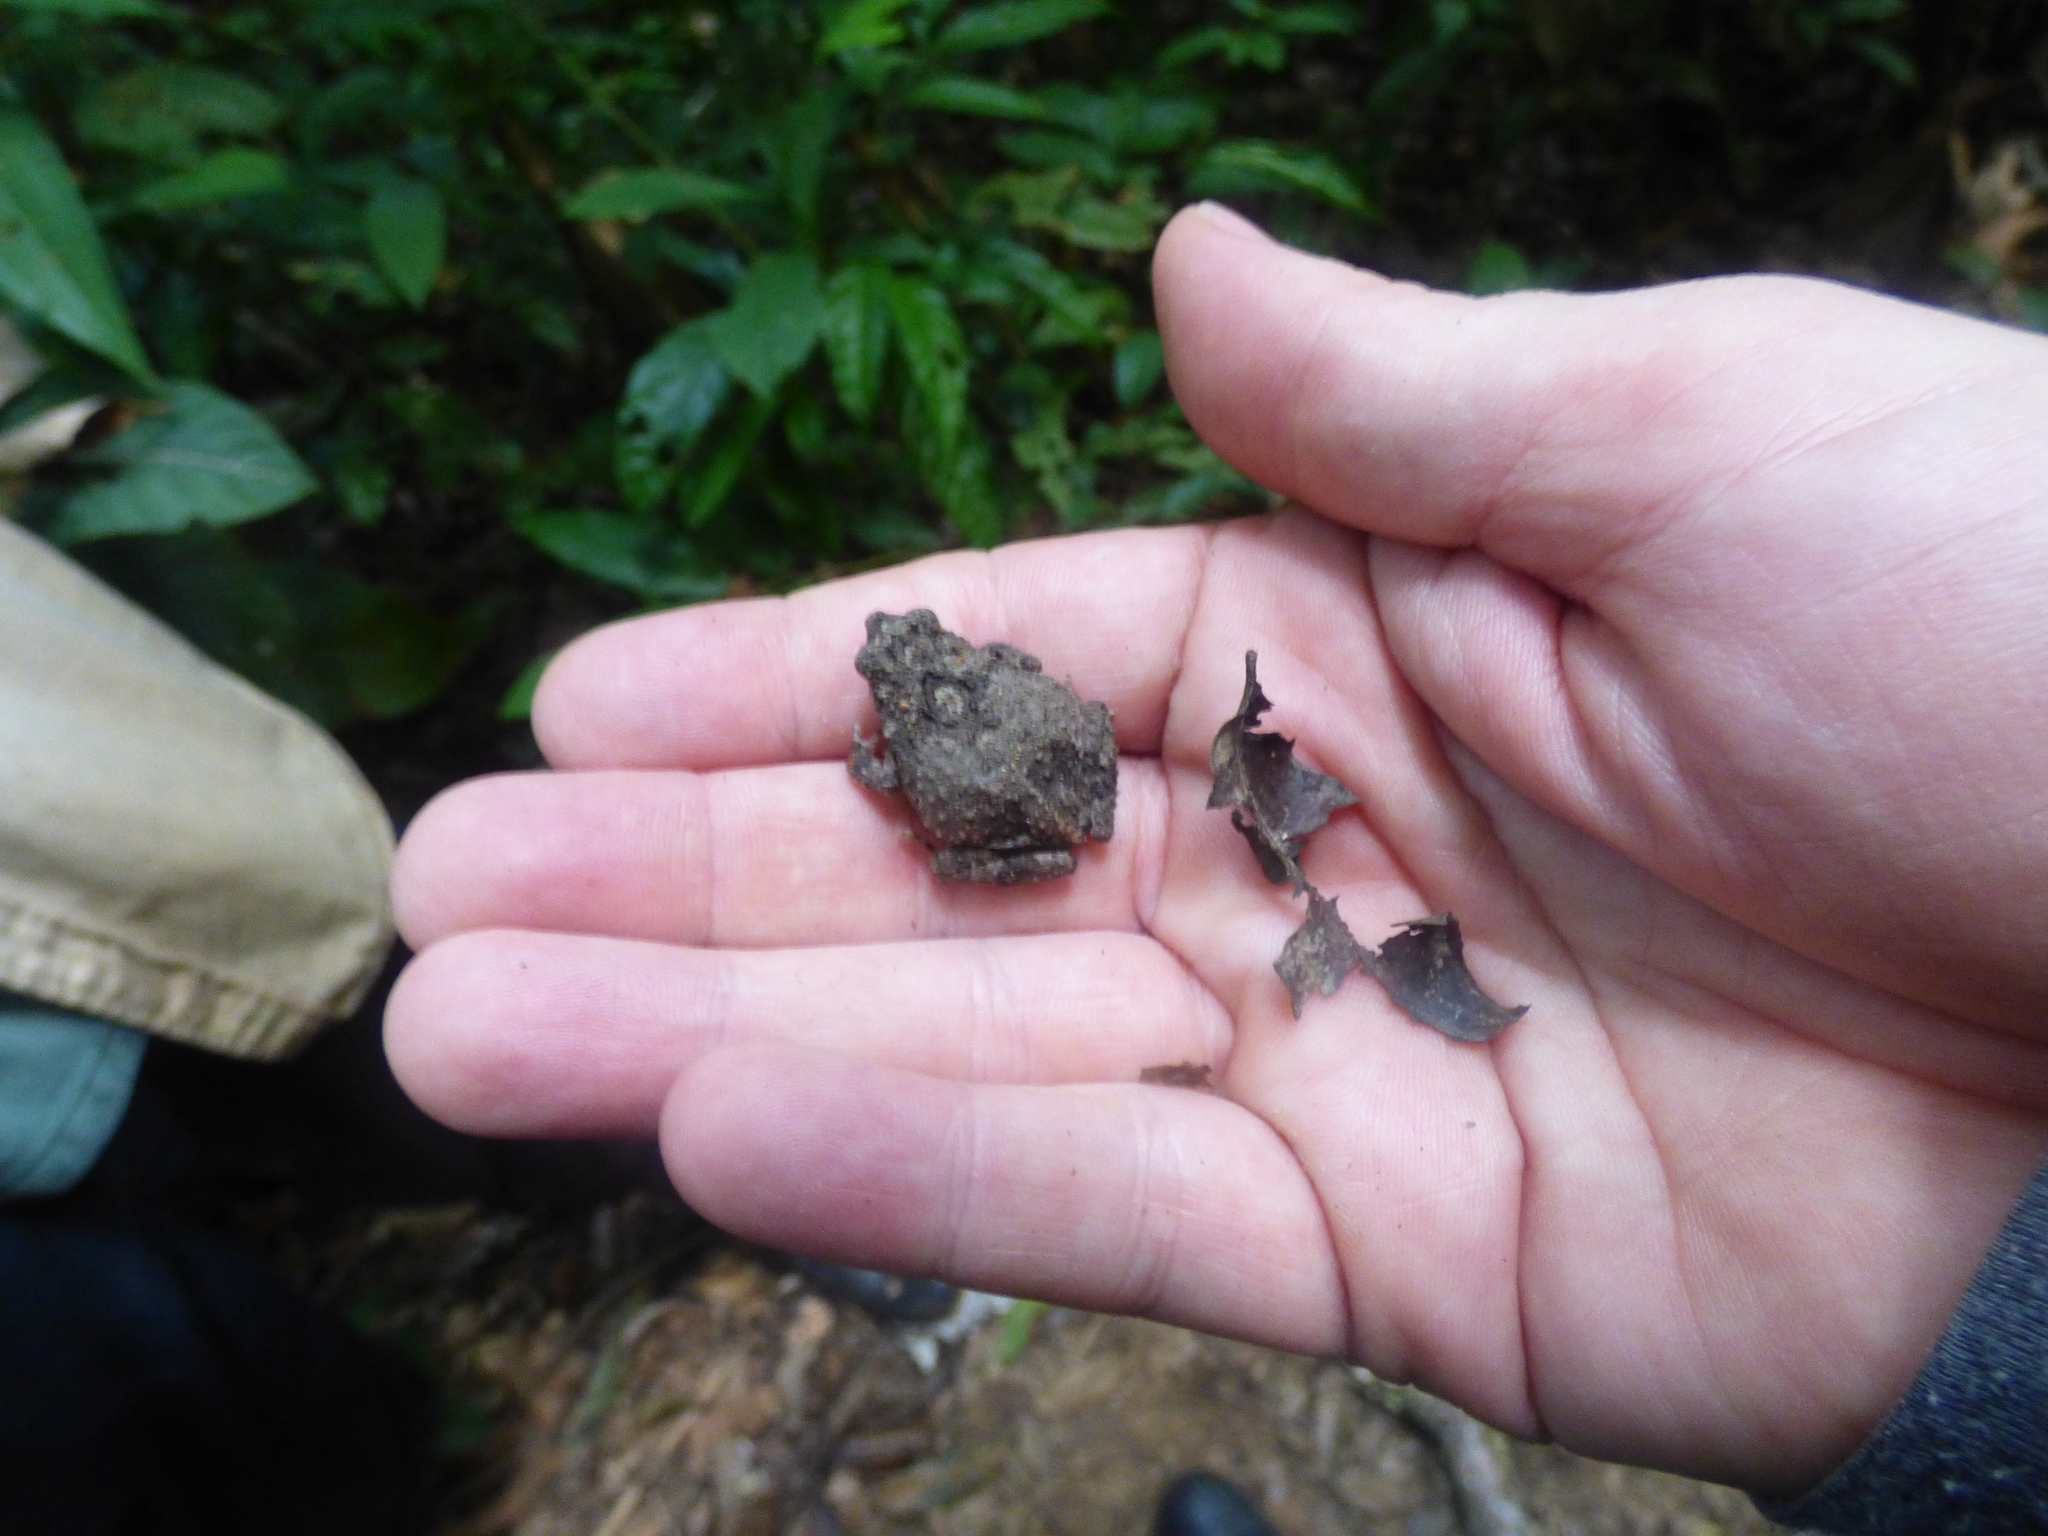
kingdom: Animalia
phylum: Chordata
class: Amphibia
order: Anura
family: Leptodactylidae
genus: Engystomops
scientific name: Engystomops pustulosus
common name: Tungara frog
